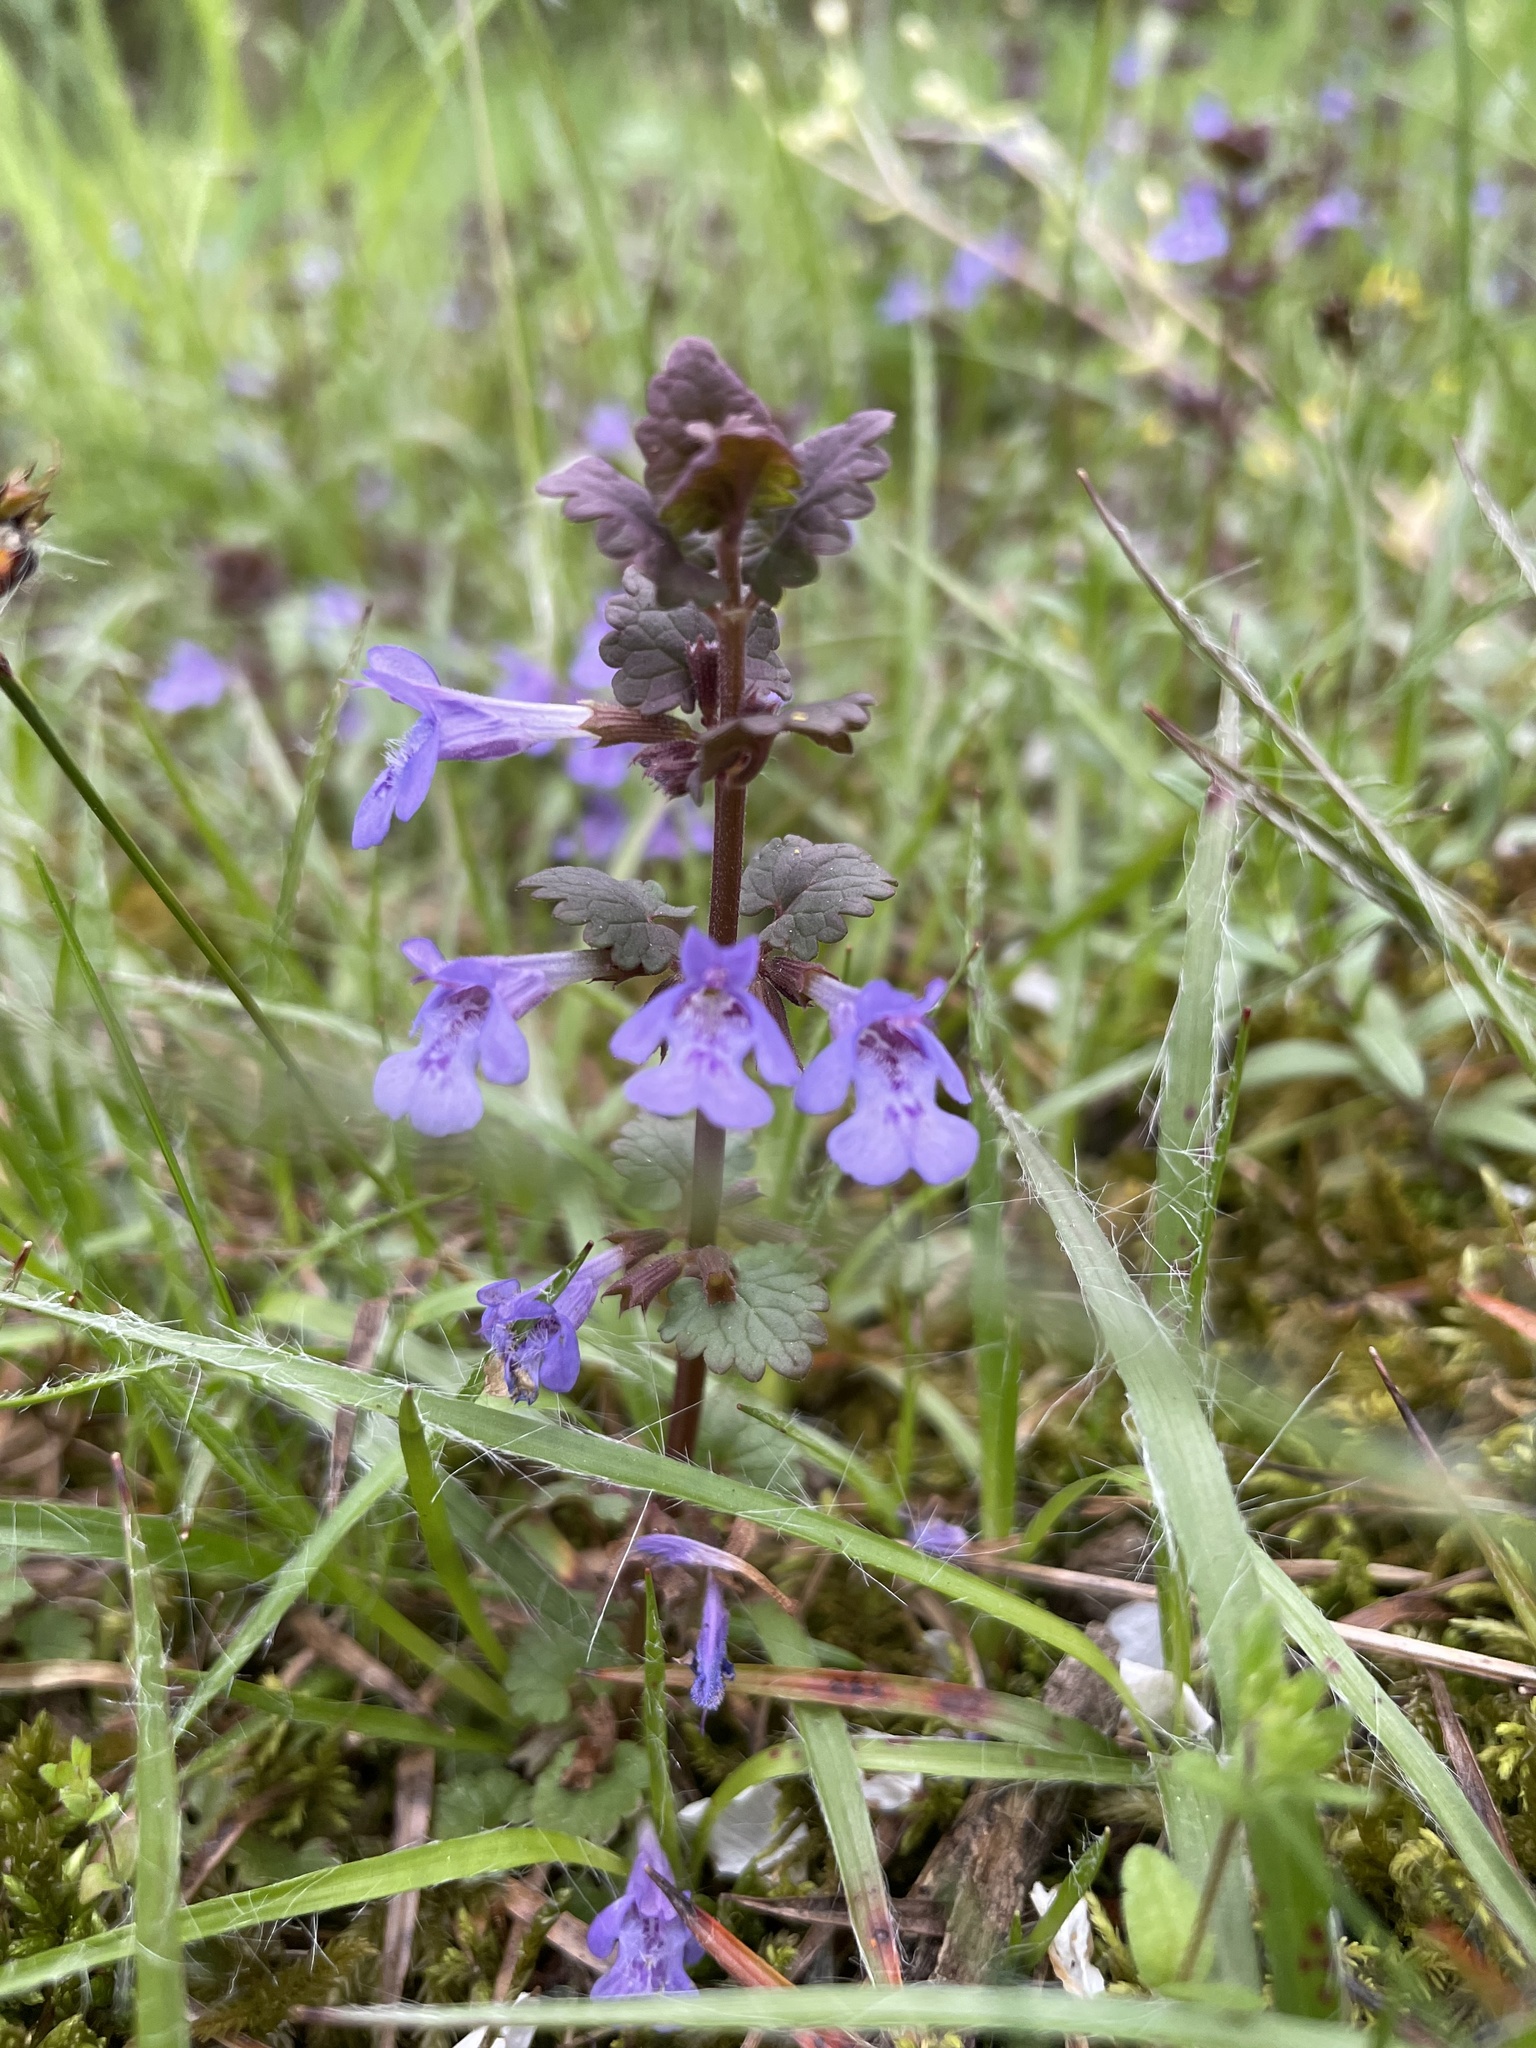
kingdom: Plantae
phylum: Tracheophyta
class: Magnoliopsida
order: Lamiales
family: Lamiaceae
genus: Glechoma
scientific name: Glechoma hederacea
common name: Ground ivy
